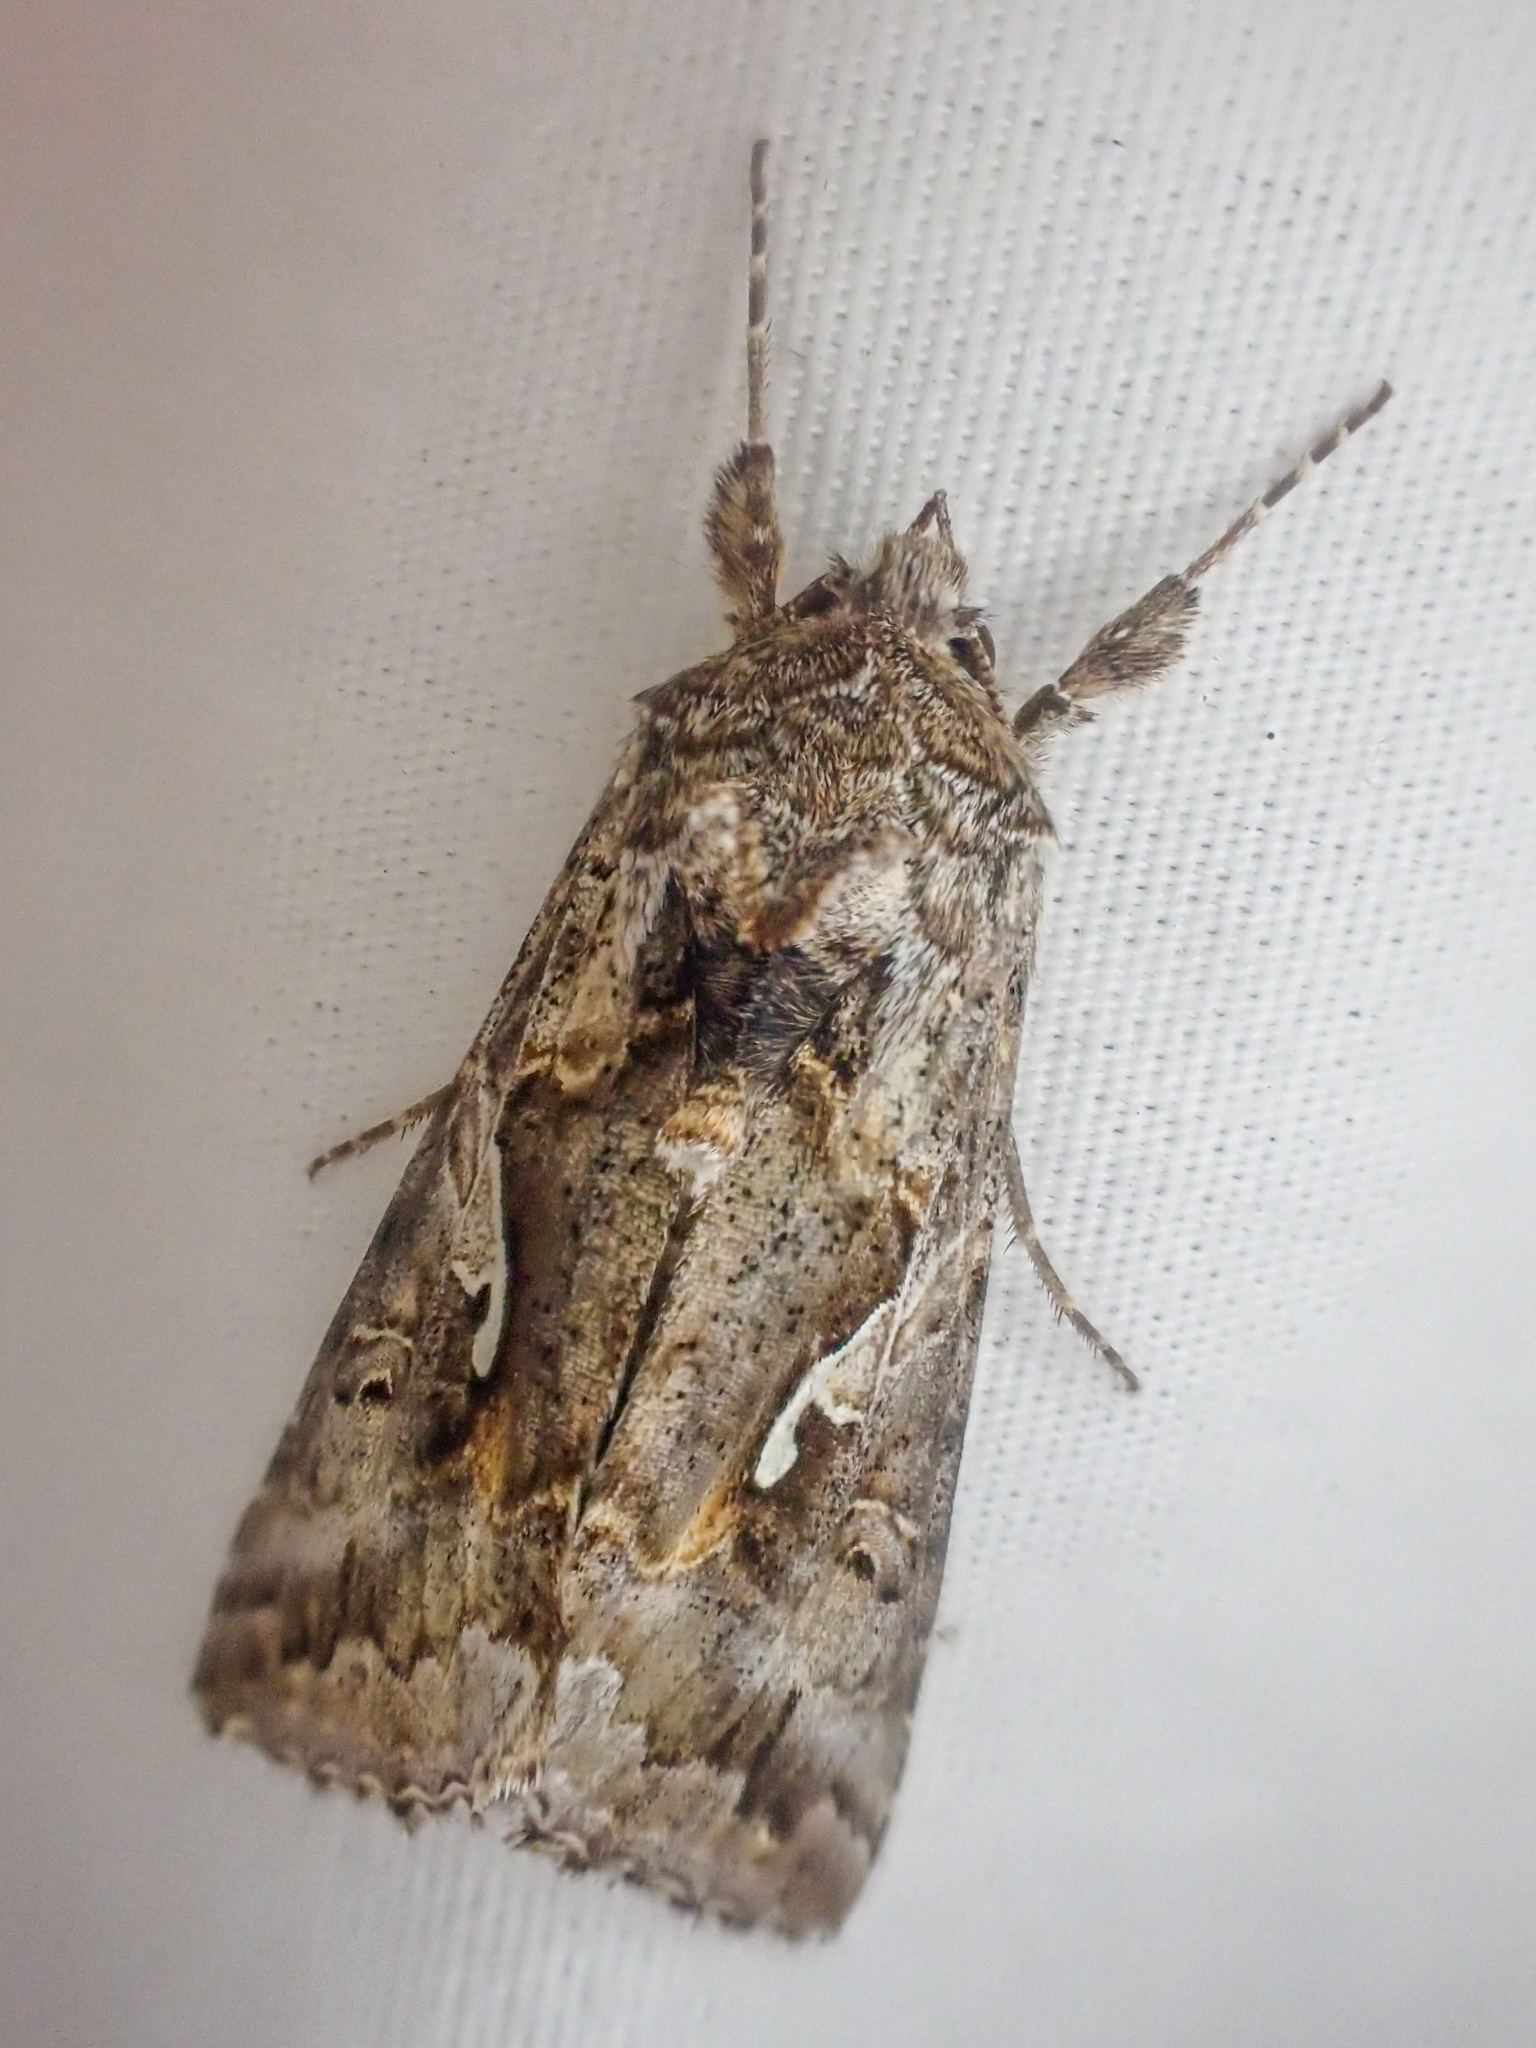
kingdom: Animalia
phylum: Arthropoda
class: Insecta
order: Lepidoptera
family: Noctuidae
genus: Autographa
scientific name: Autographa californica
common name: Alfalfa looper
